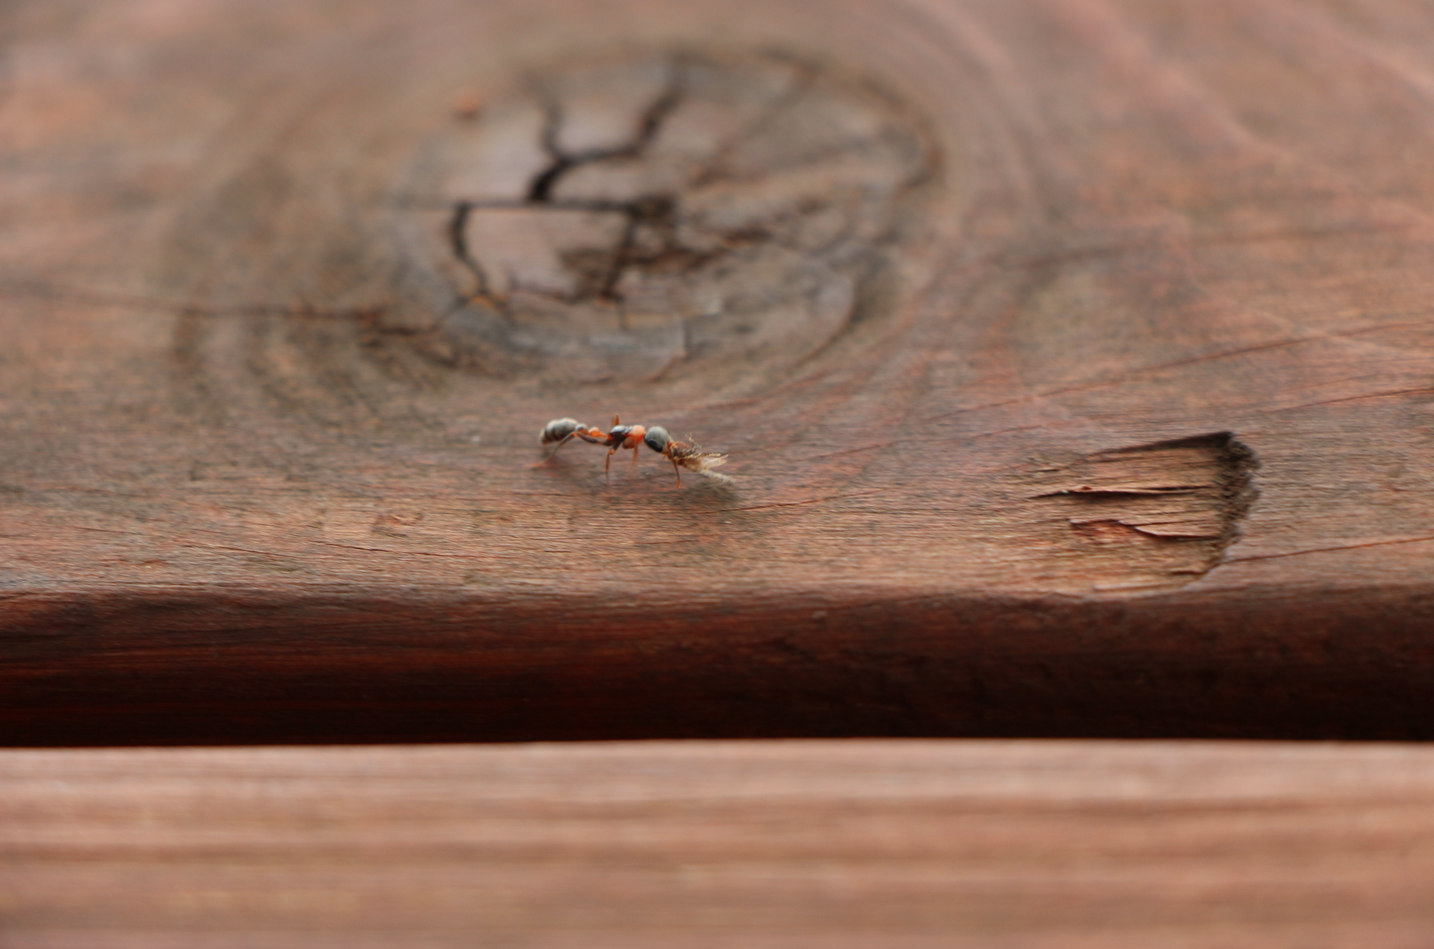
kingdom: Animalia
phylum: Arthropoda
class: Insecta
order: Hymenoptera
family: Formicidae
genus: Pseudomyrmex
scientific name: Pseudomyrmex gracilis
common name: Graceful twig ant
